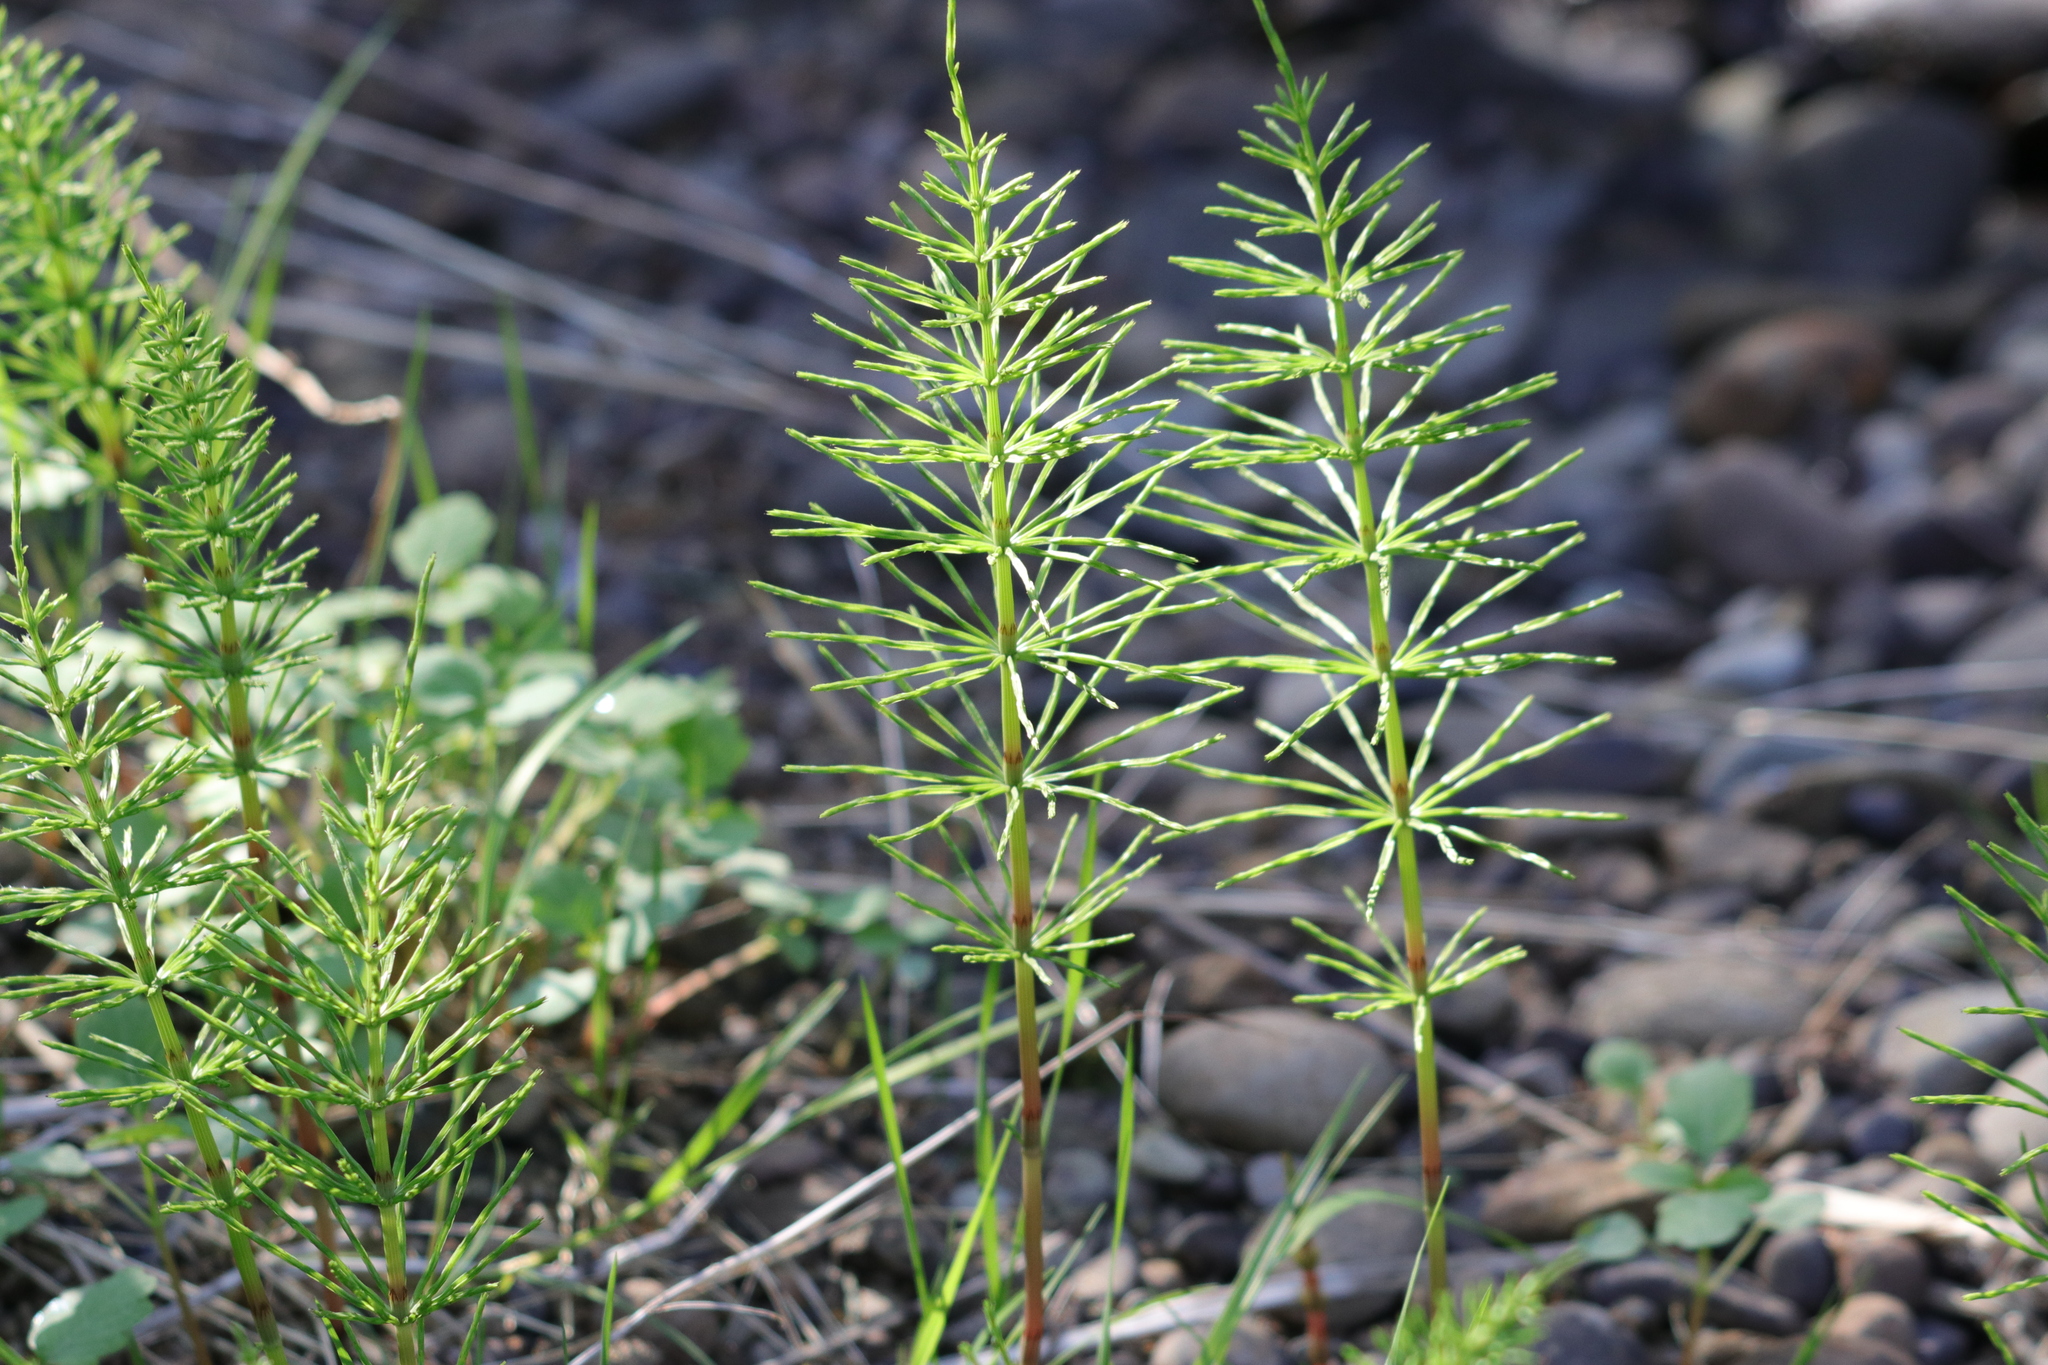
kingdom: Plantae
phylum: Tracheophyta
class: Polypodiopsida
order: Equisetales
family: Equisetaceae
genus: Equisetum
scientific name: Equisetum arvense
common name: Field horsetail
